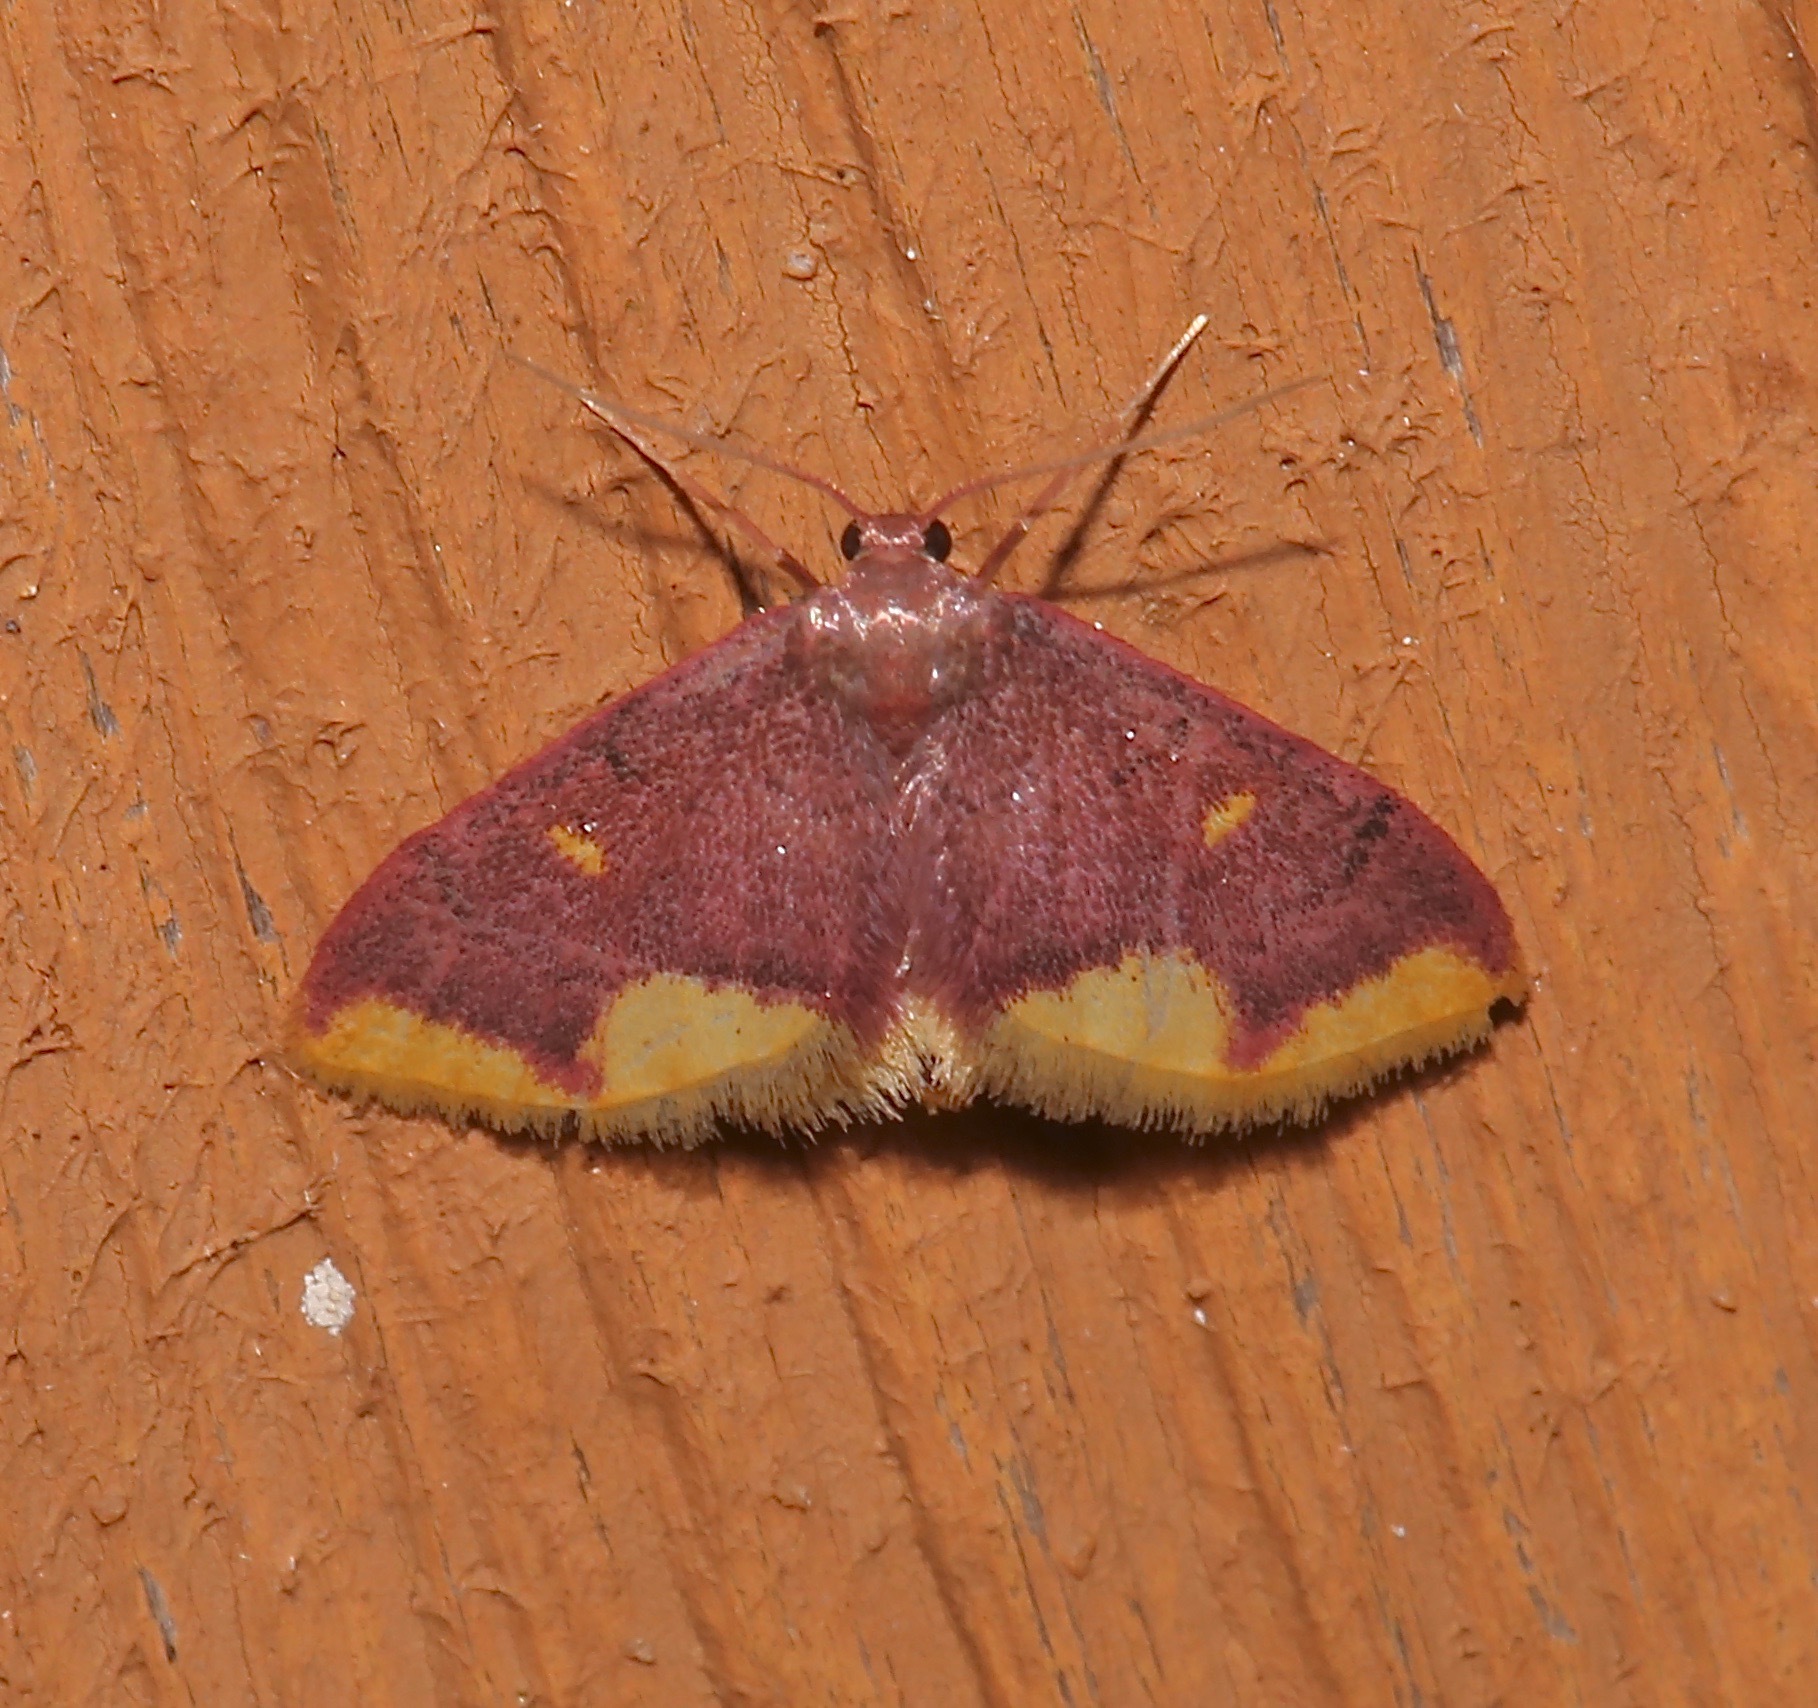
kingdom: Animalia
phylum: Arthropoda
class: Insecta
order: Lepidoptera
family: Geometridae
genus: Lophosis
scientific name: Lophosis labeculata
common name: Stained lophosis moth
